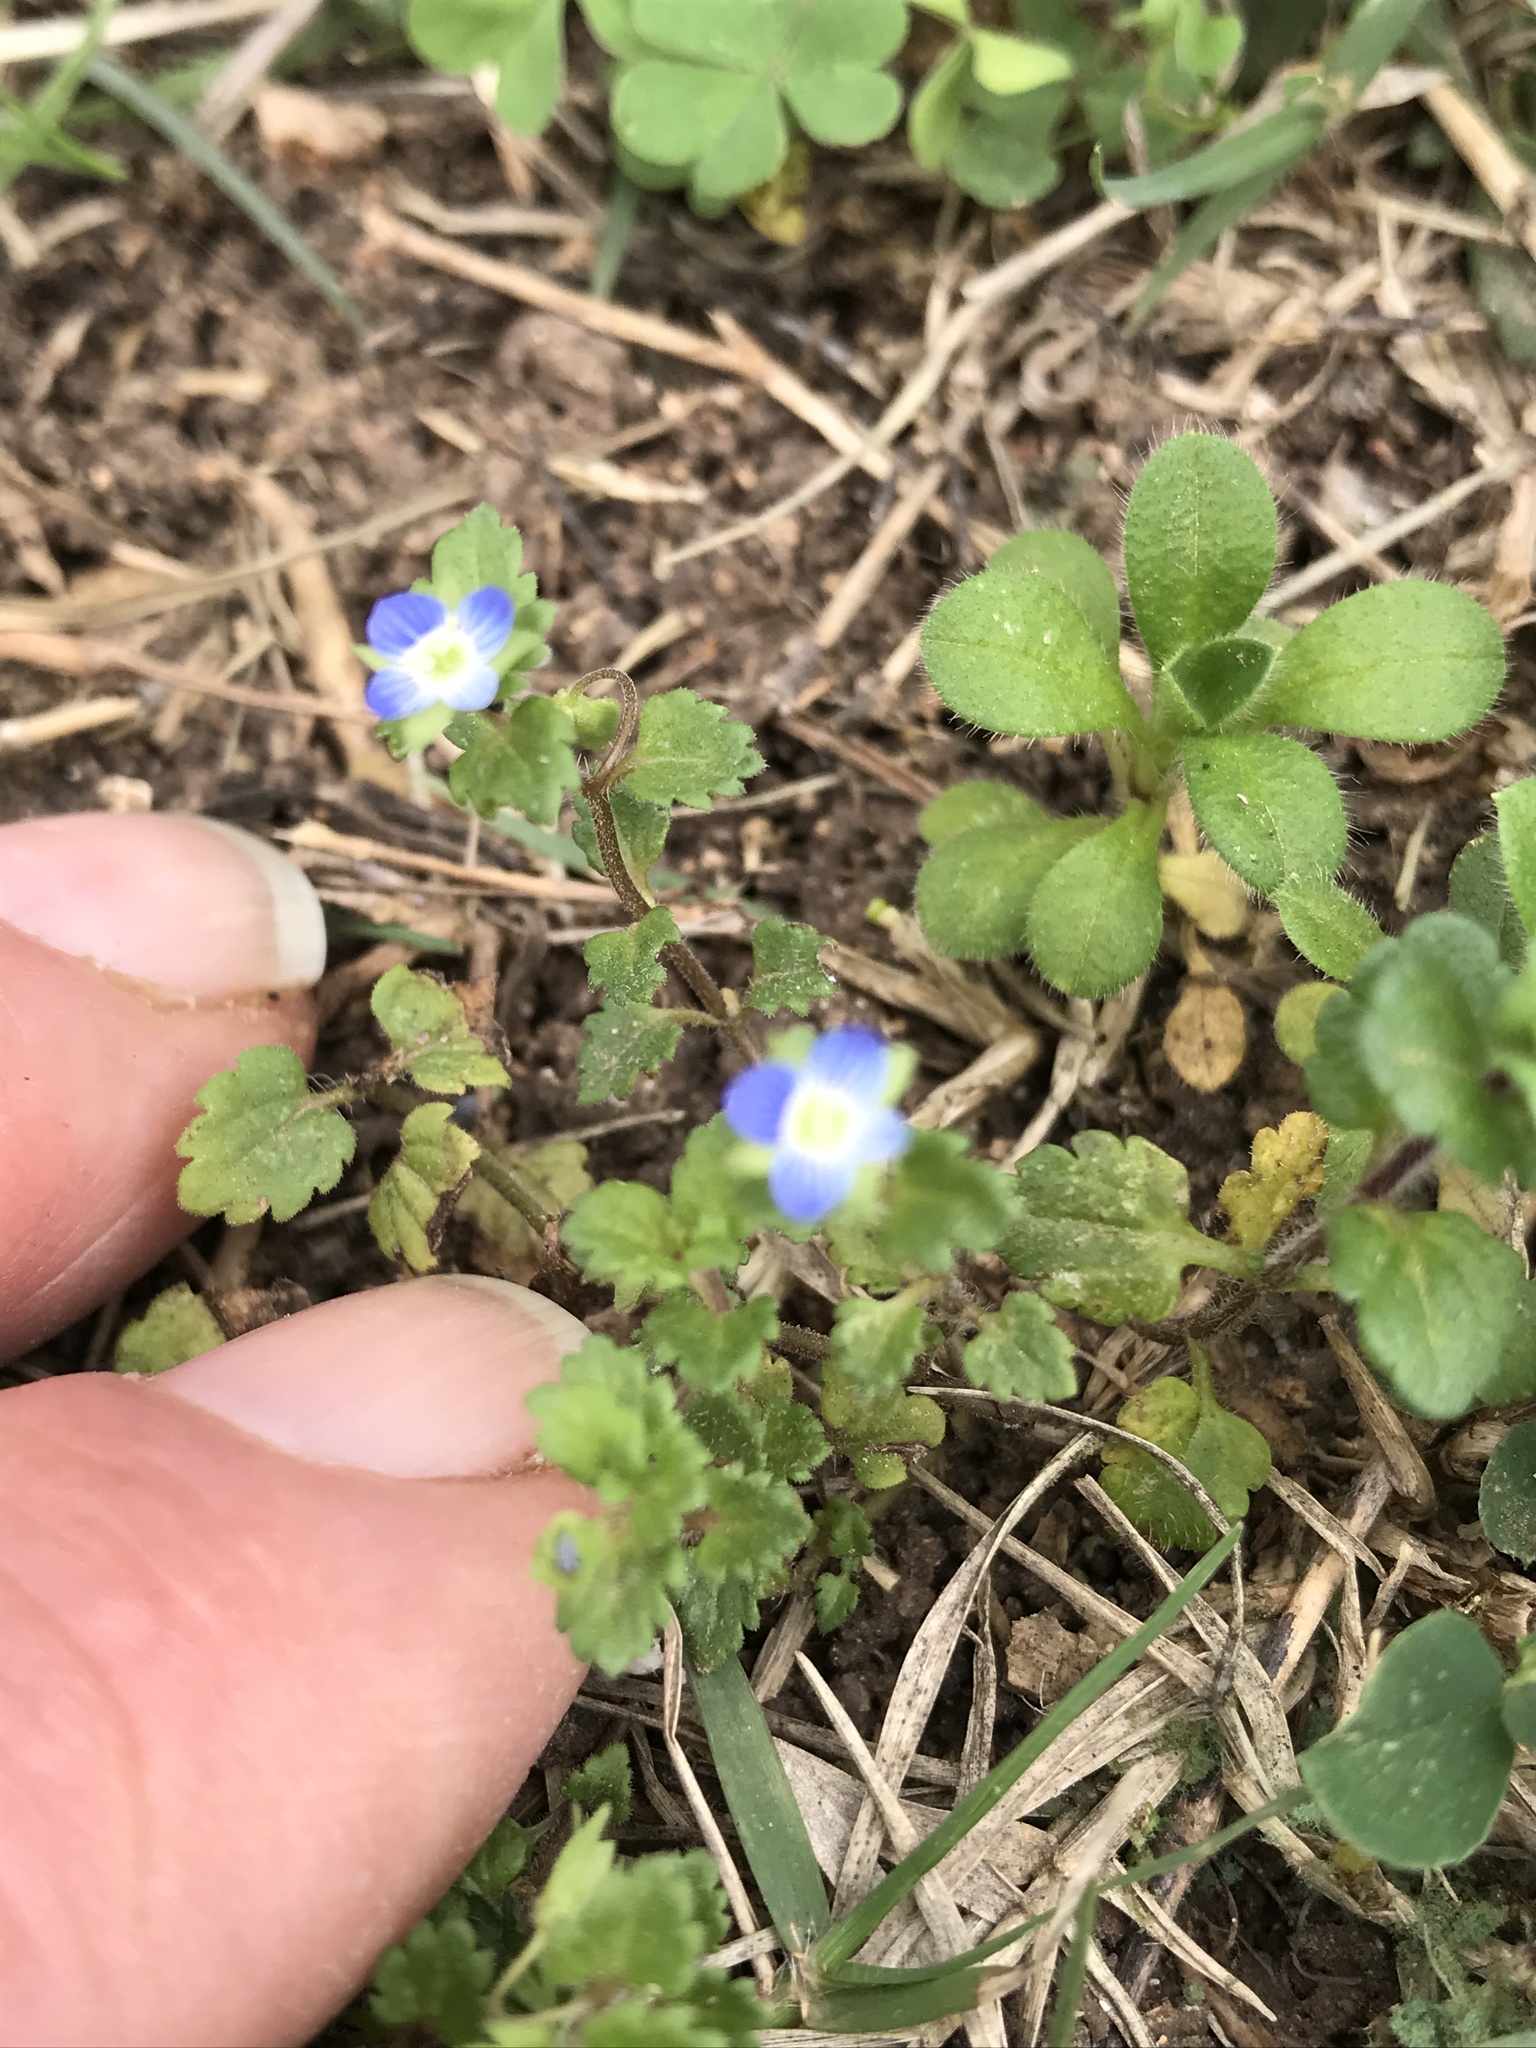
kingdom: Plantae
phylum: Tracheophyta
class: Magnoliopsida
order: Lamiales
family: Plantaginaceae
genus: Veronica
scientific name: Veronica polita
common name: Grey field-speedwell
